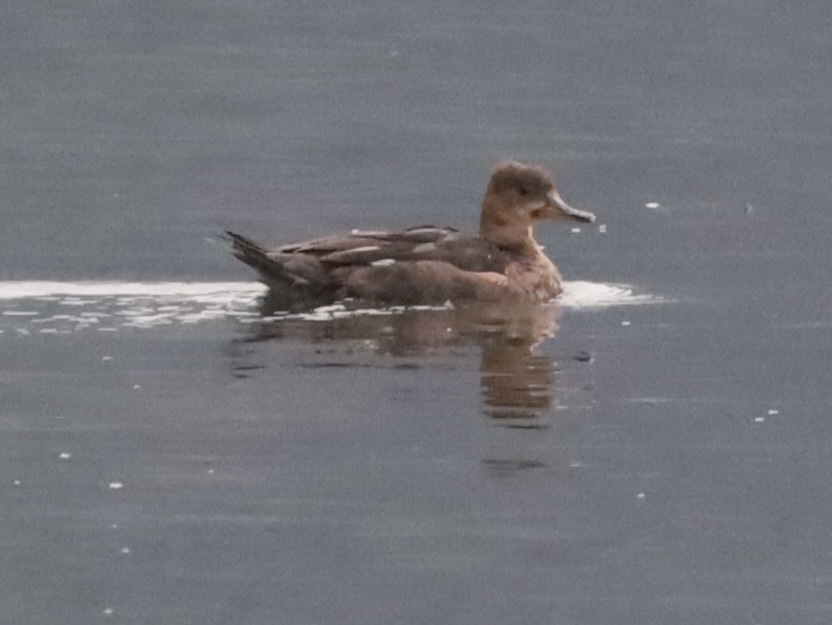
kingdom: Animalia
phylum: Chordata
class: Aves
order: Anseriformes
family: Anatidae
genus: Lophodytes
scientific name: Lophodytes cucullatus
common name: Hooded merganser
